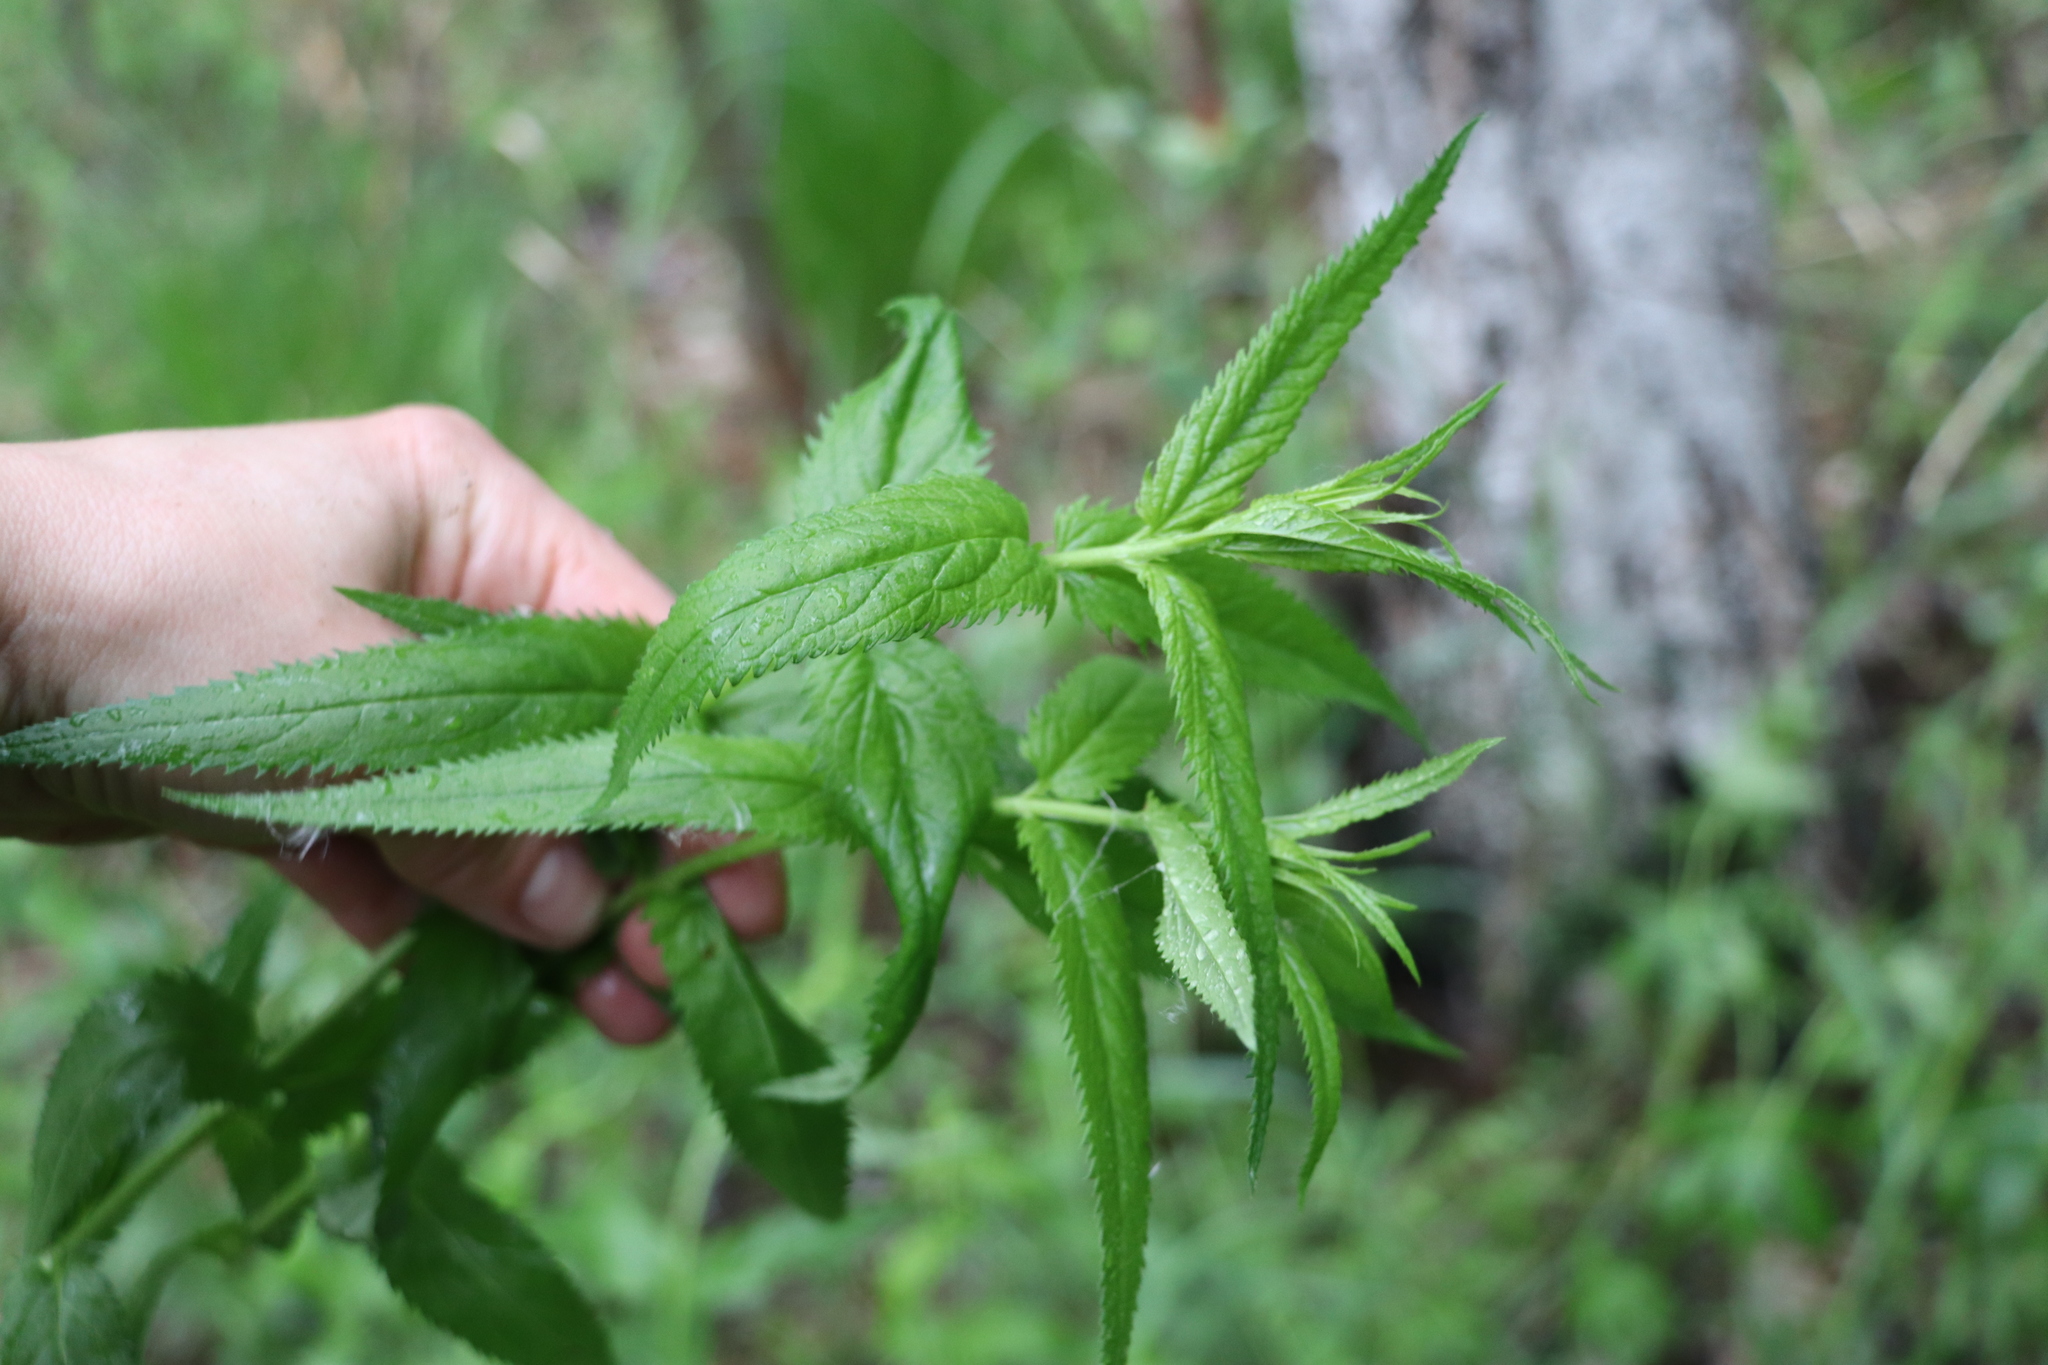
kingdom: Plantae
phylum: Tracheophyta
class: Magnoliopsida
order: Lamiales
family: Plantaginaceae
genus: Veronica
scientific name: Veronica longifolia
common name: Garden speedwell
